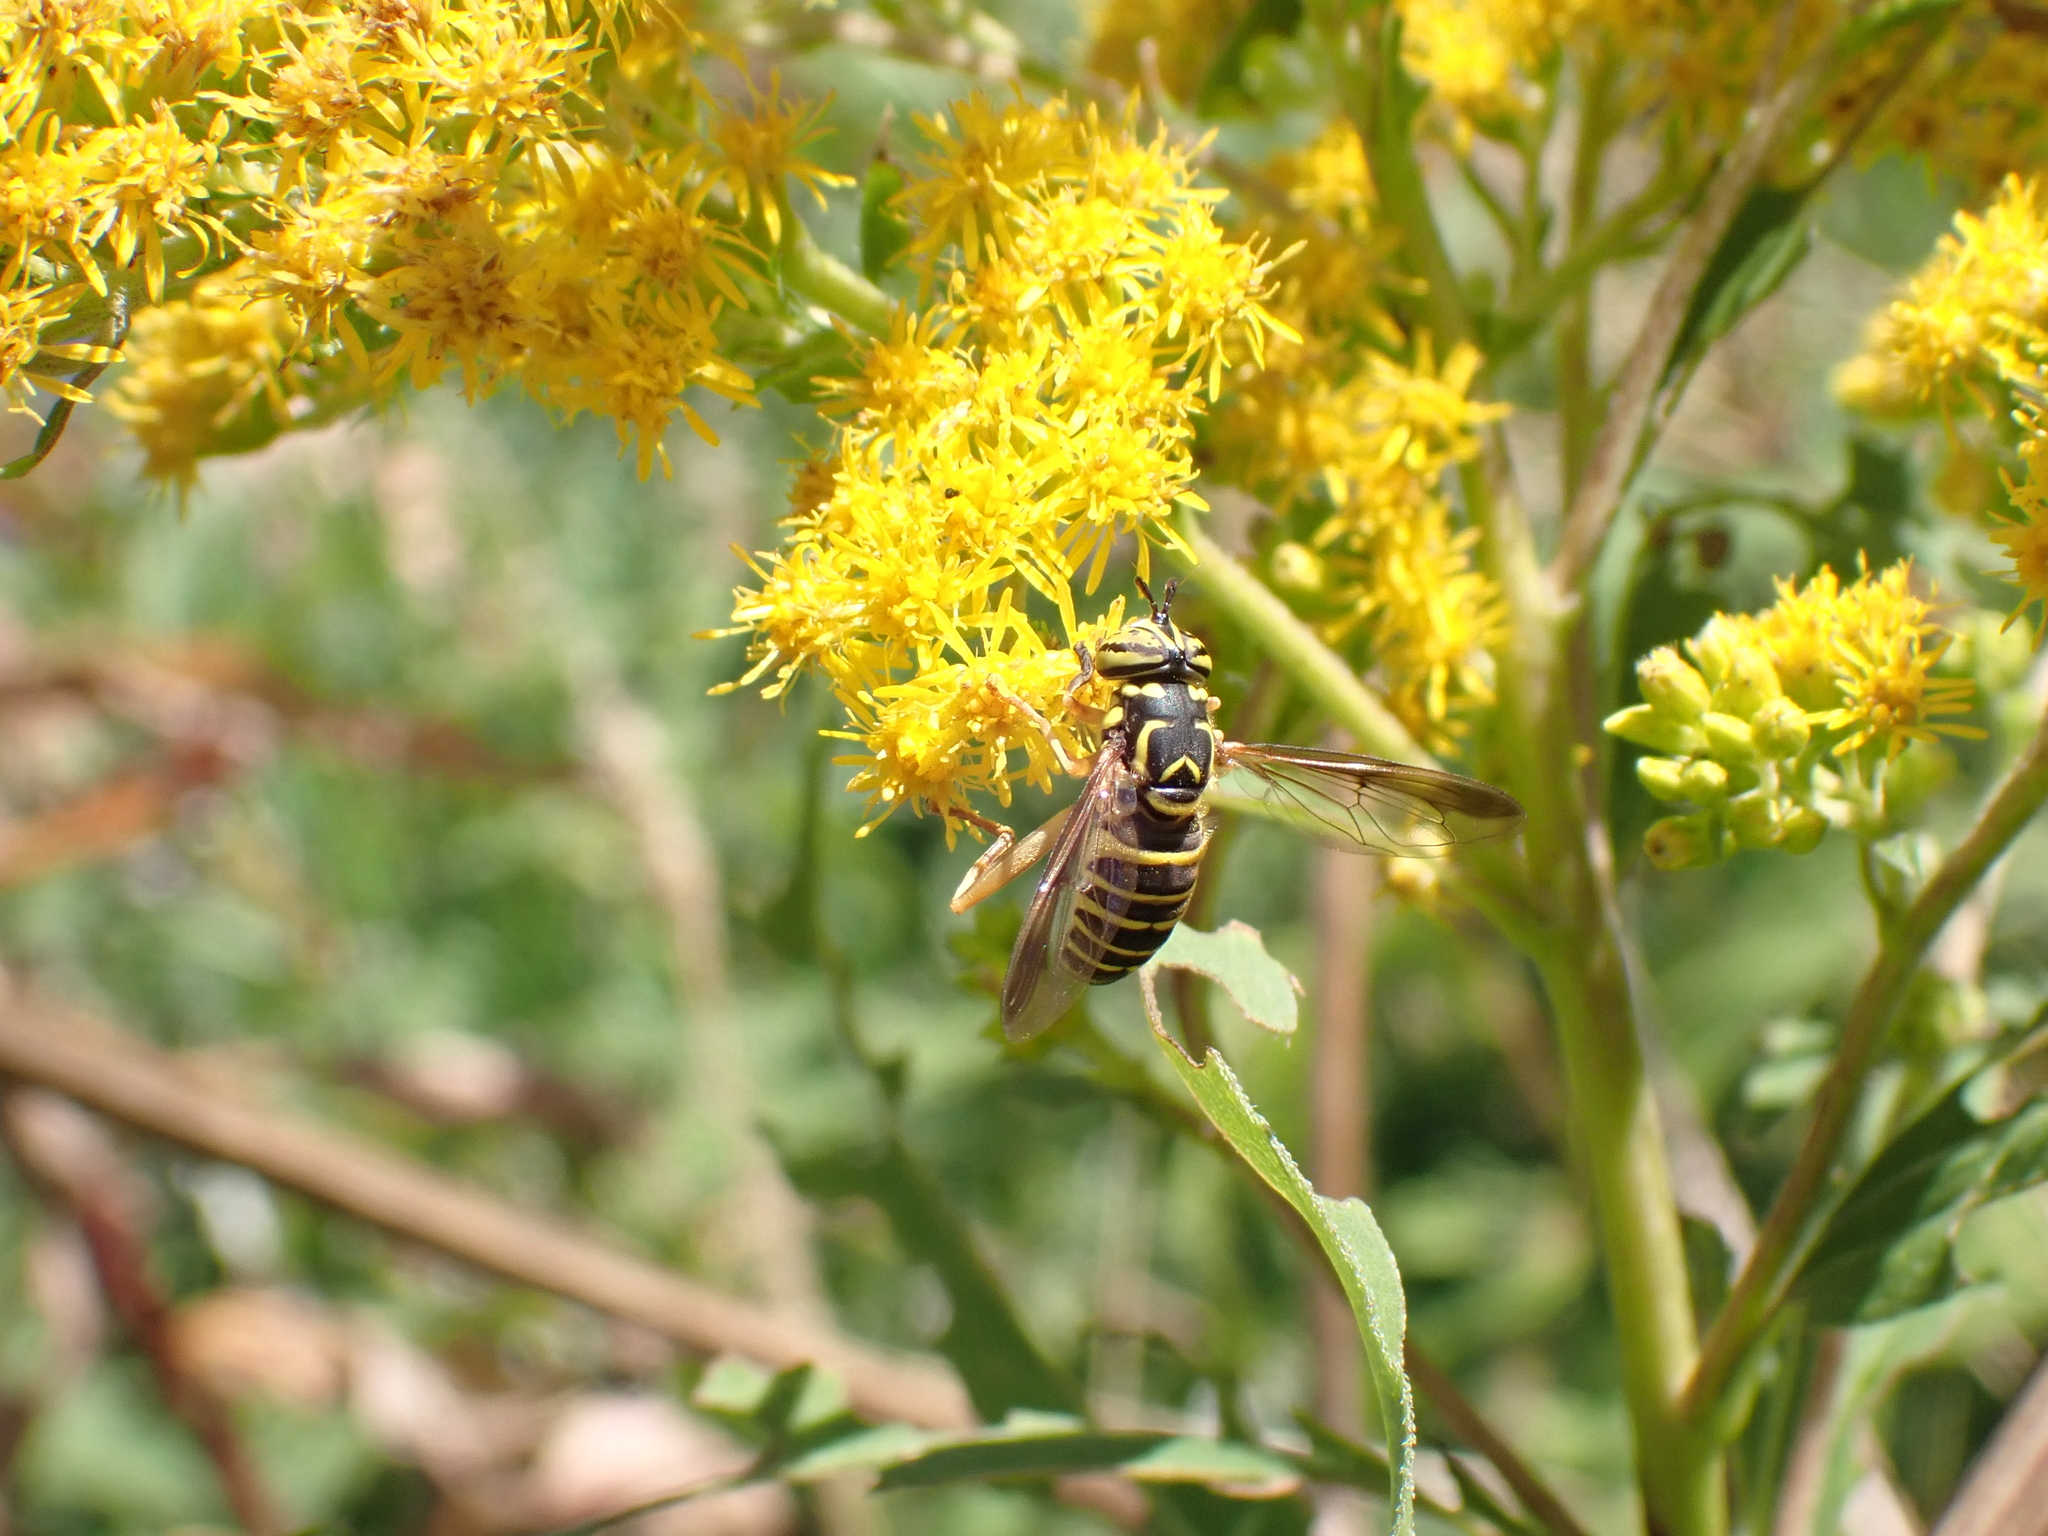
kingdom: Animalia
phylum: Arthropoda
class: Insecta
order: Diptera
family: Syrphidae
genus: Spilomyia
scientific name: Spilomyia longicornis
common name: Eastern hornet fly
